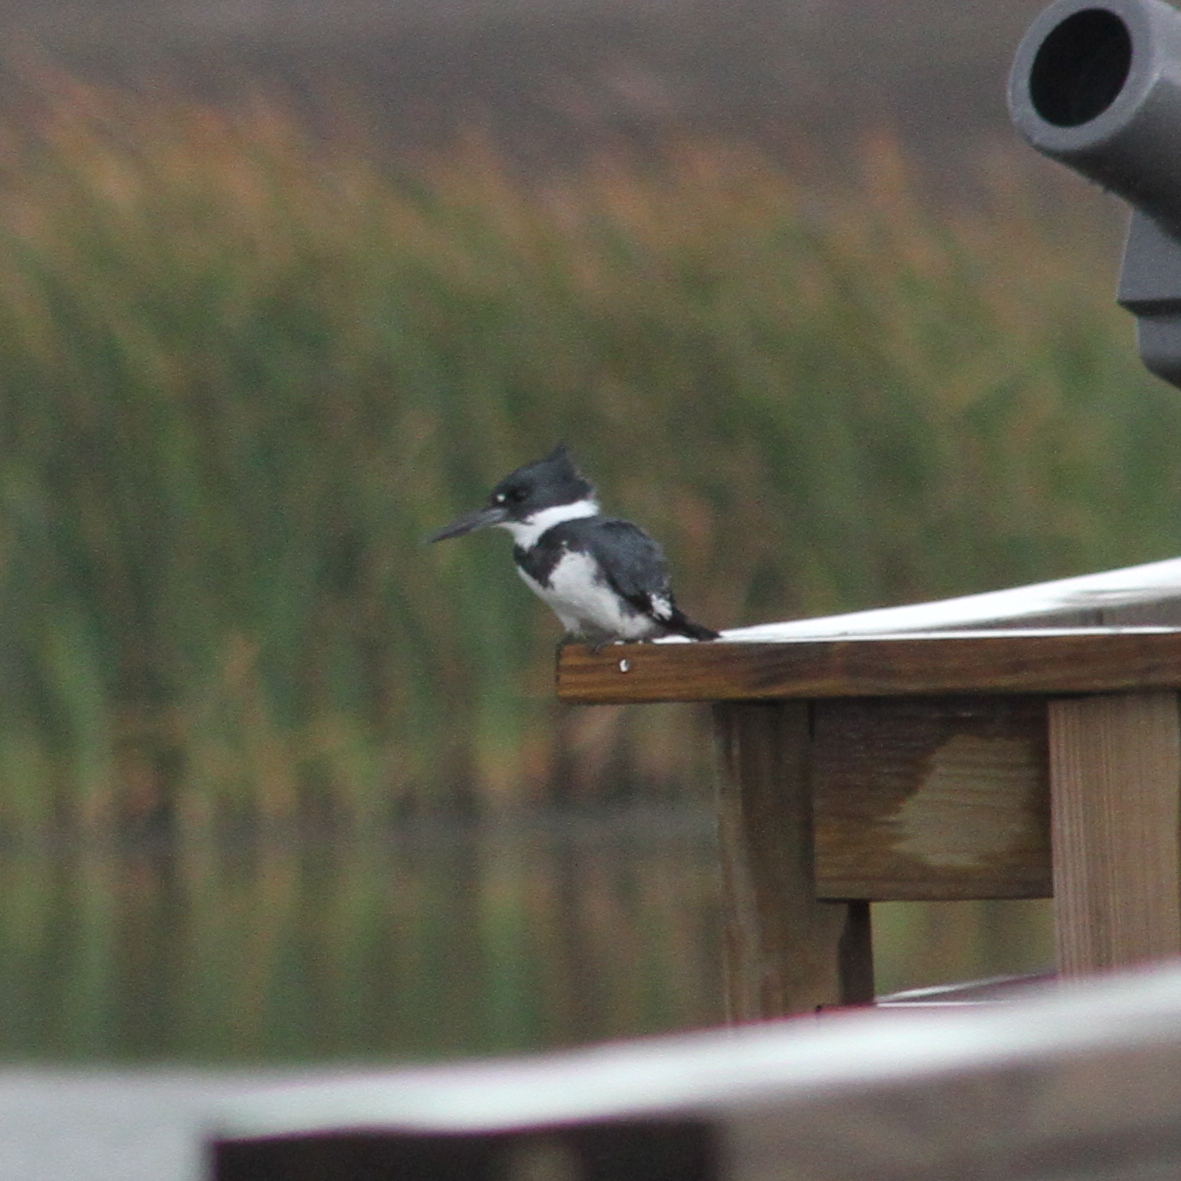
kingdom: Animalia
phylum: Chordata
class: Aves
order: Coraciiformes
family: Alcedinidae
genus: Megaceryle
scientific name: Megaceryle alcyon
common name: Belted kingfisher
